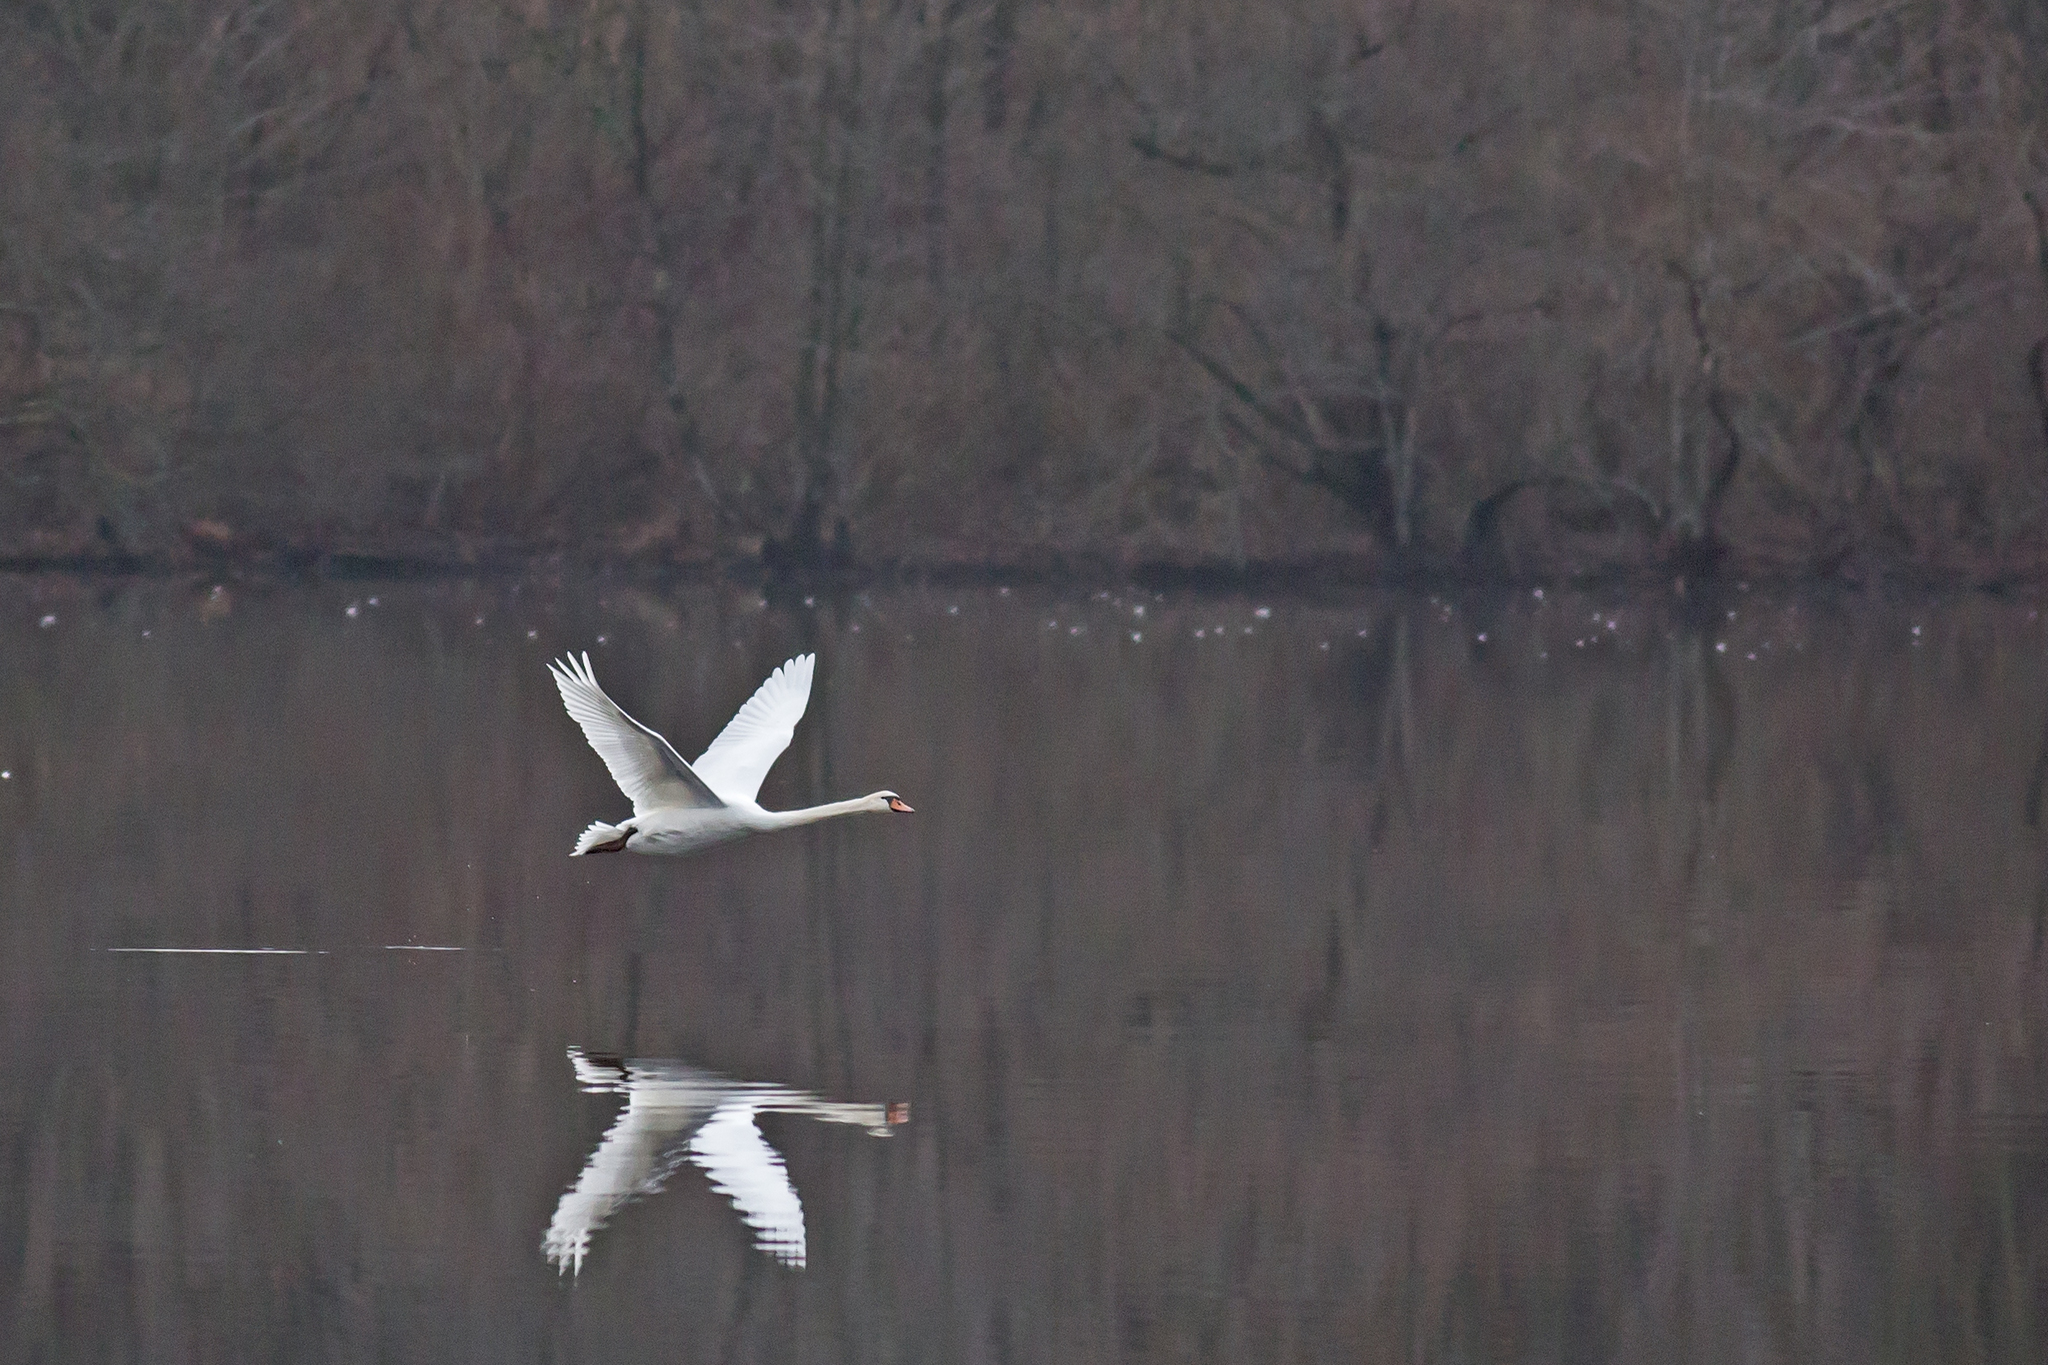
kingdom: Animalia
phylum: Chordata
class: Aves
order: Anseriformes
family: Anatidae
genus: Cygnus
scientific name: Cygnus olor
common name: Mute swan
